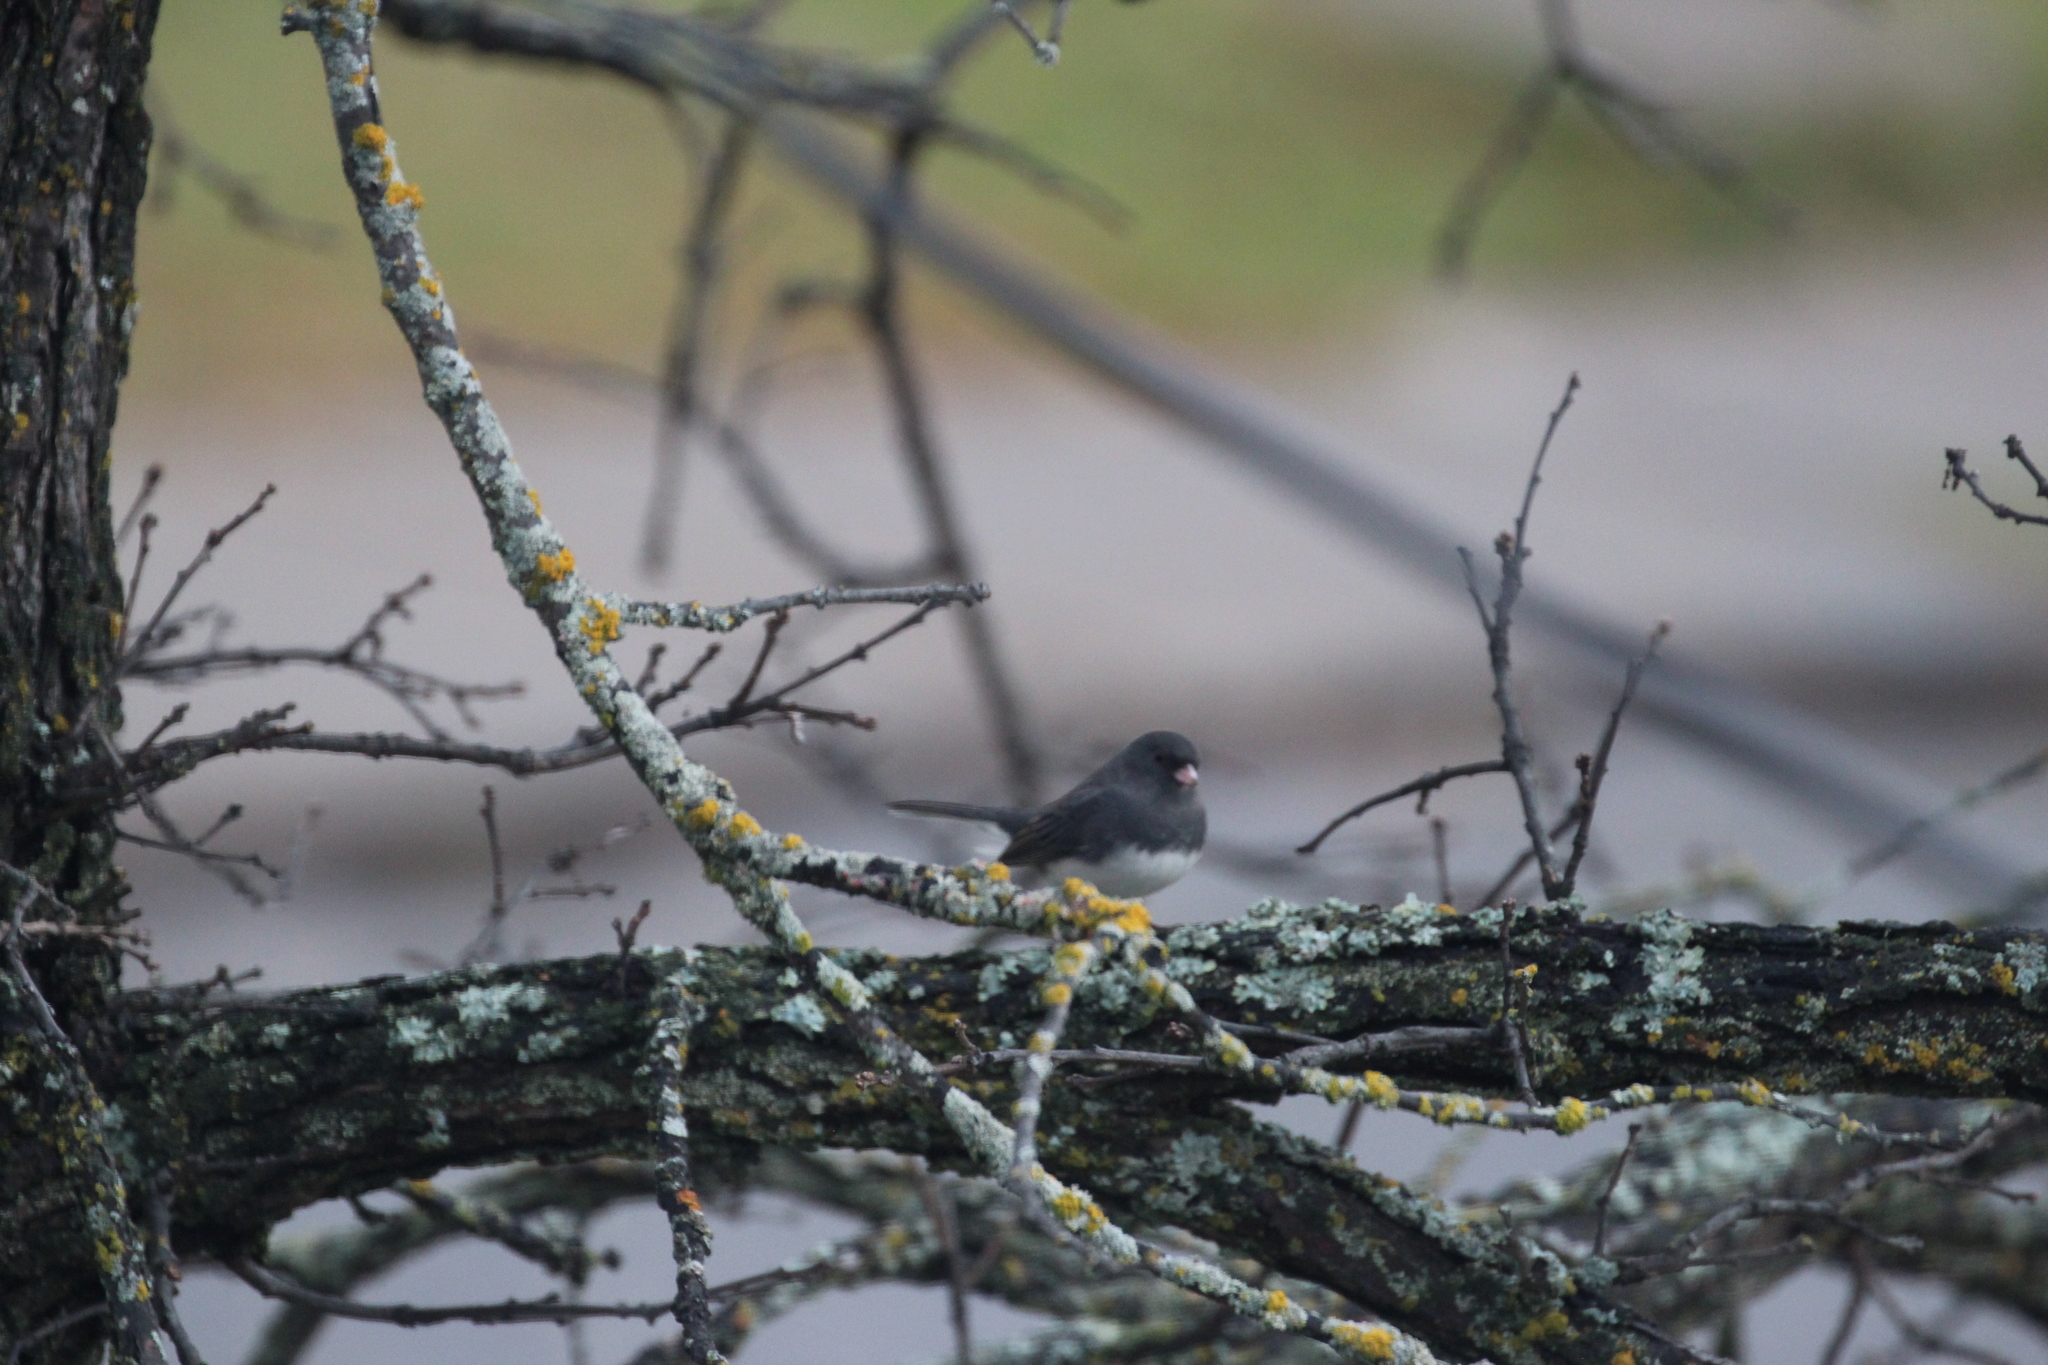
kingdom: Animalia
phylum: Chordata
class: Aves
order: Passeriformes
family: Passerellidae
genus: Junco
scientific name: Junco hyemalis
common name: Dark-eyed junco
